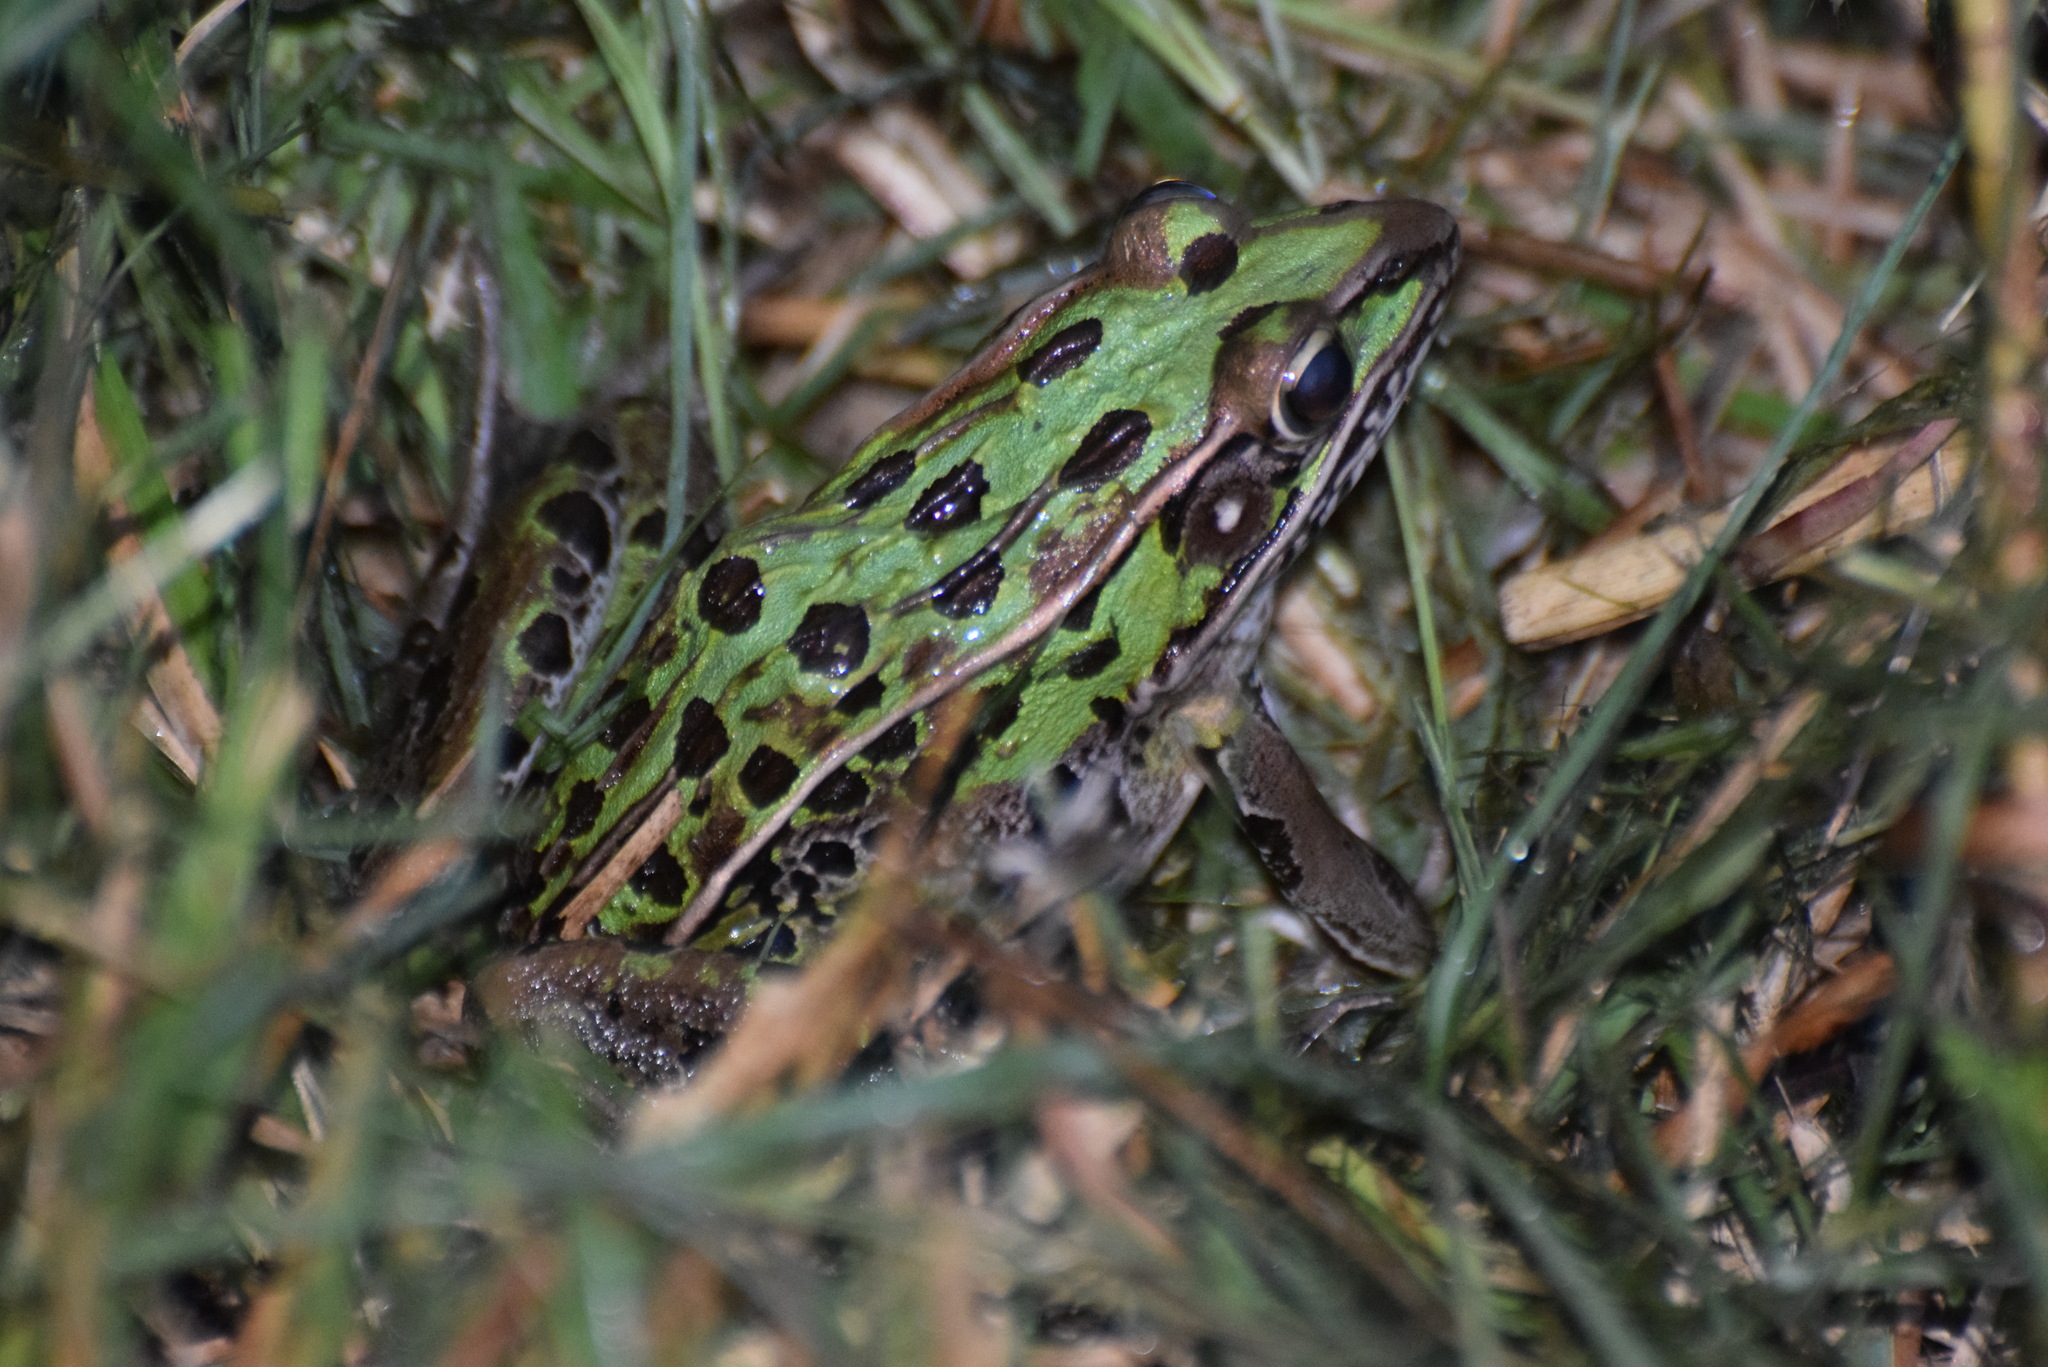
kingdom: Animalia
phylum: Chordata
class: Amphibia
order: Anura
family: Ranidae
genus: Lithobates
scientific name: Lithobates sphenocephalus
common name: Southern leopard frog
